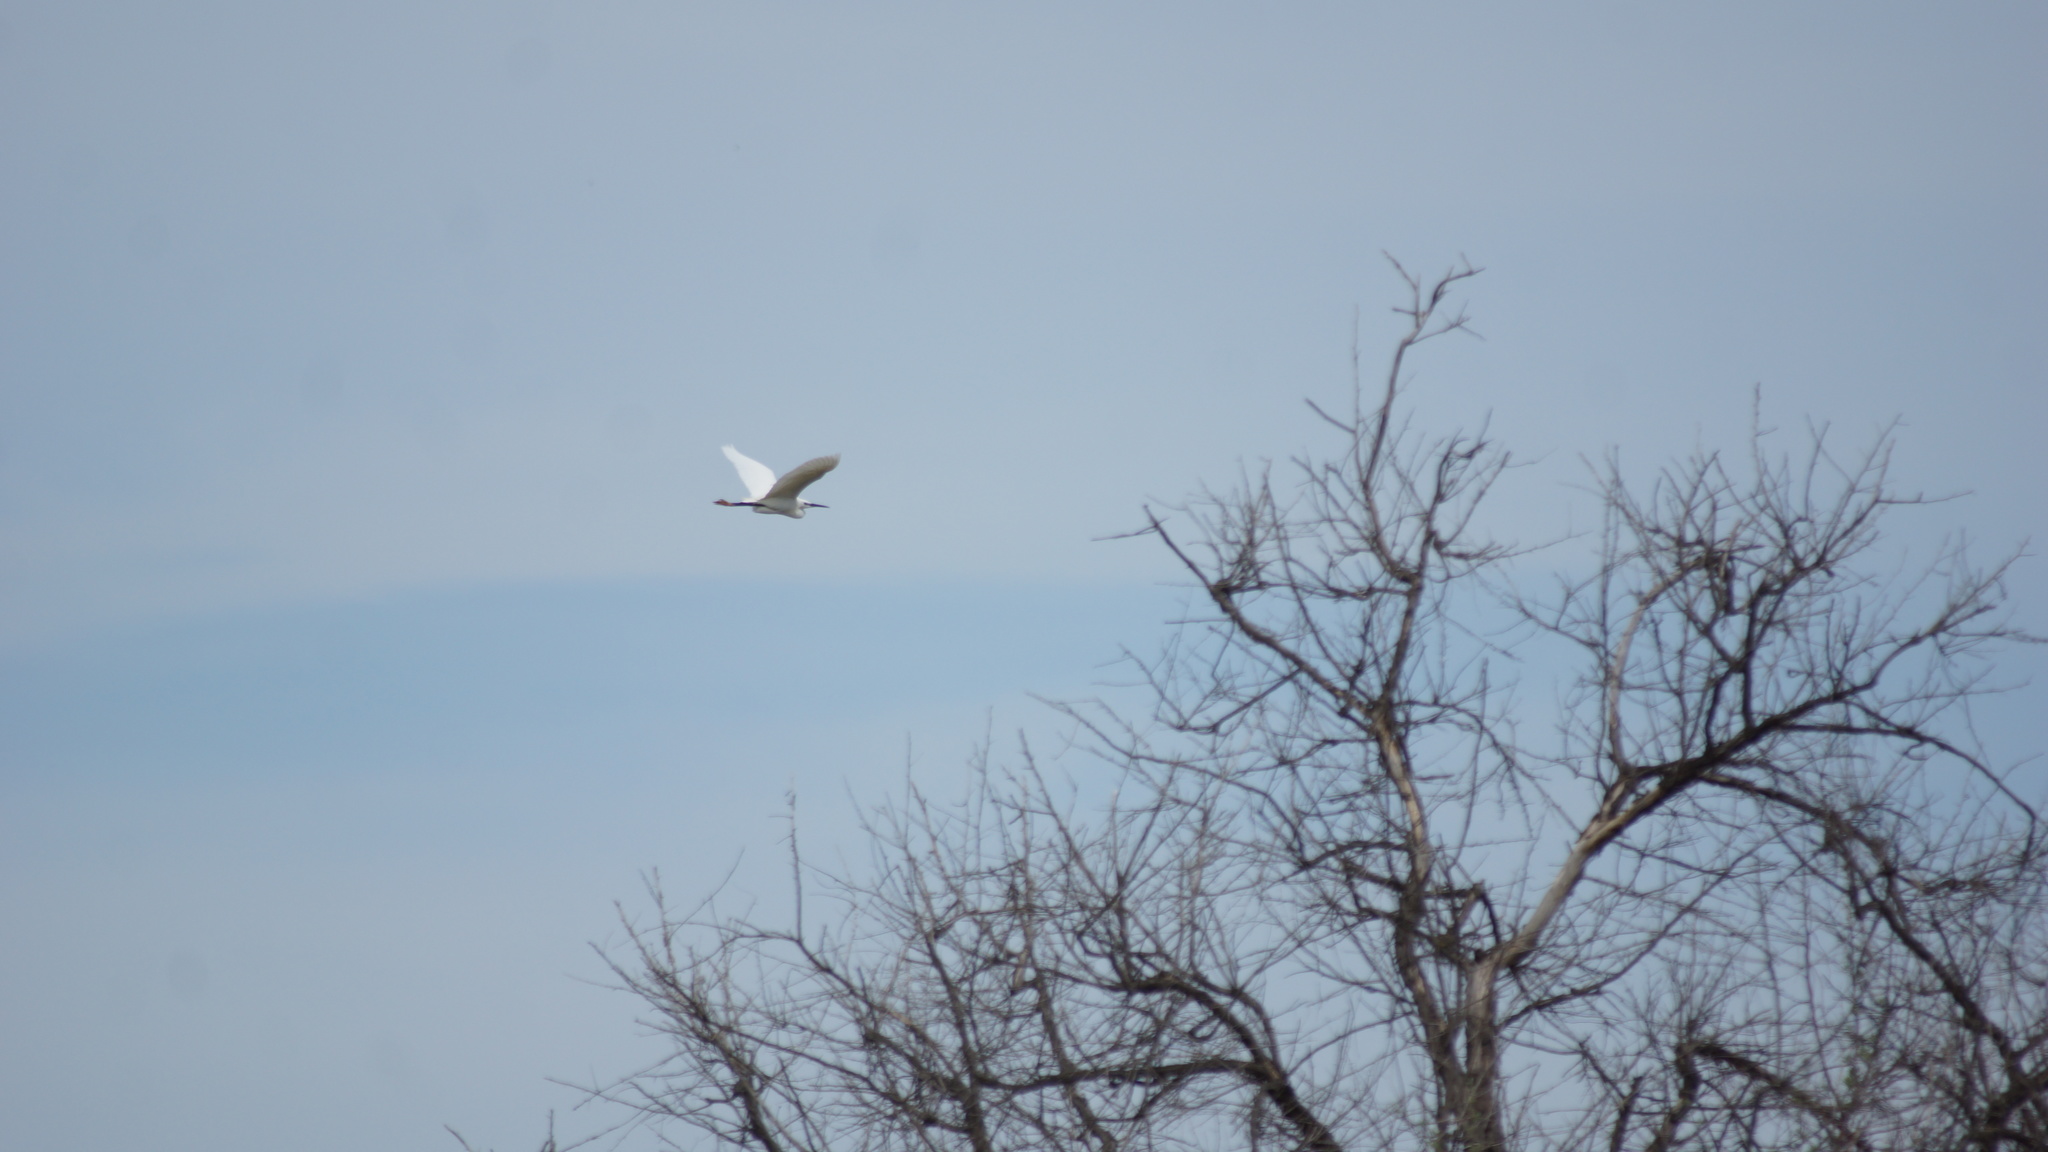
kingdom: Animalia
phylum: Chordata
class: Aves
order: Pelecaniformes
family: Ardeidae
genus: Egretta
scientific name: Egretta garzetta
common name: Little egret
